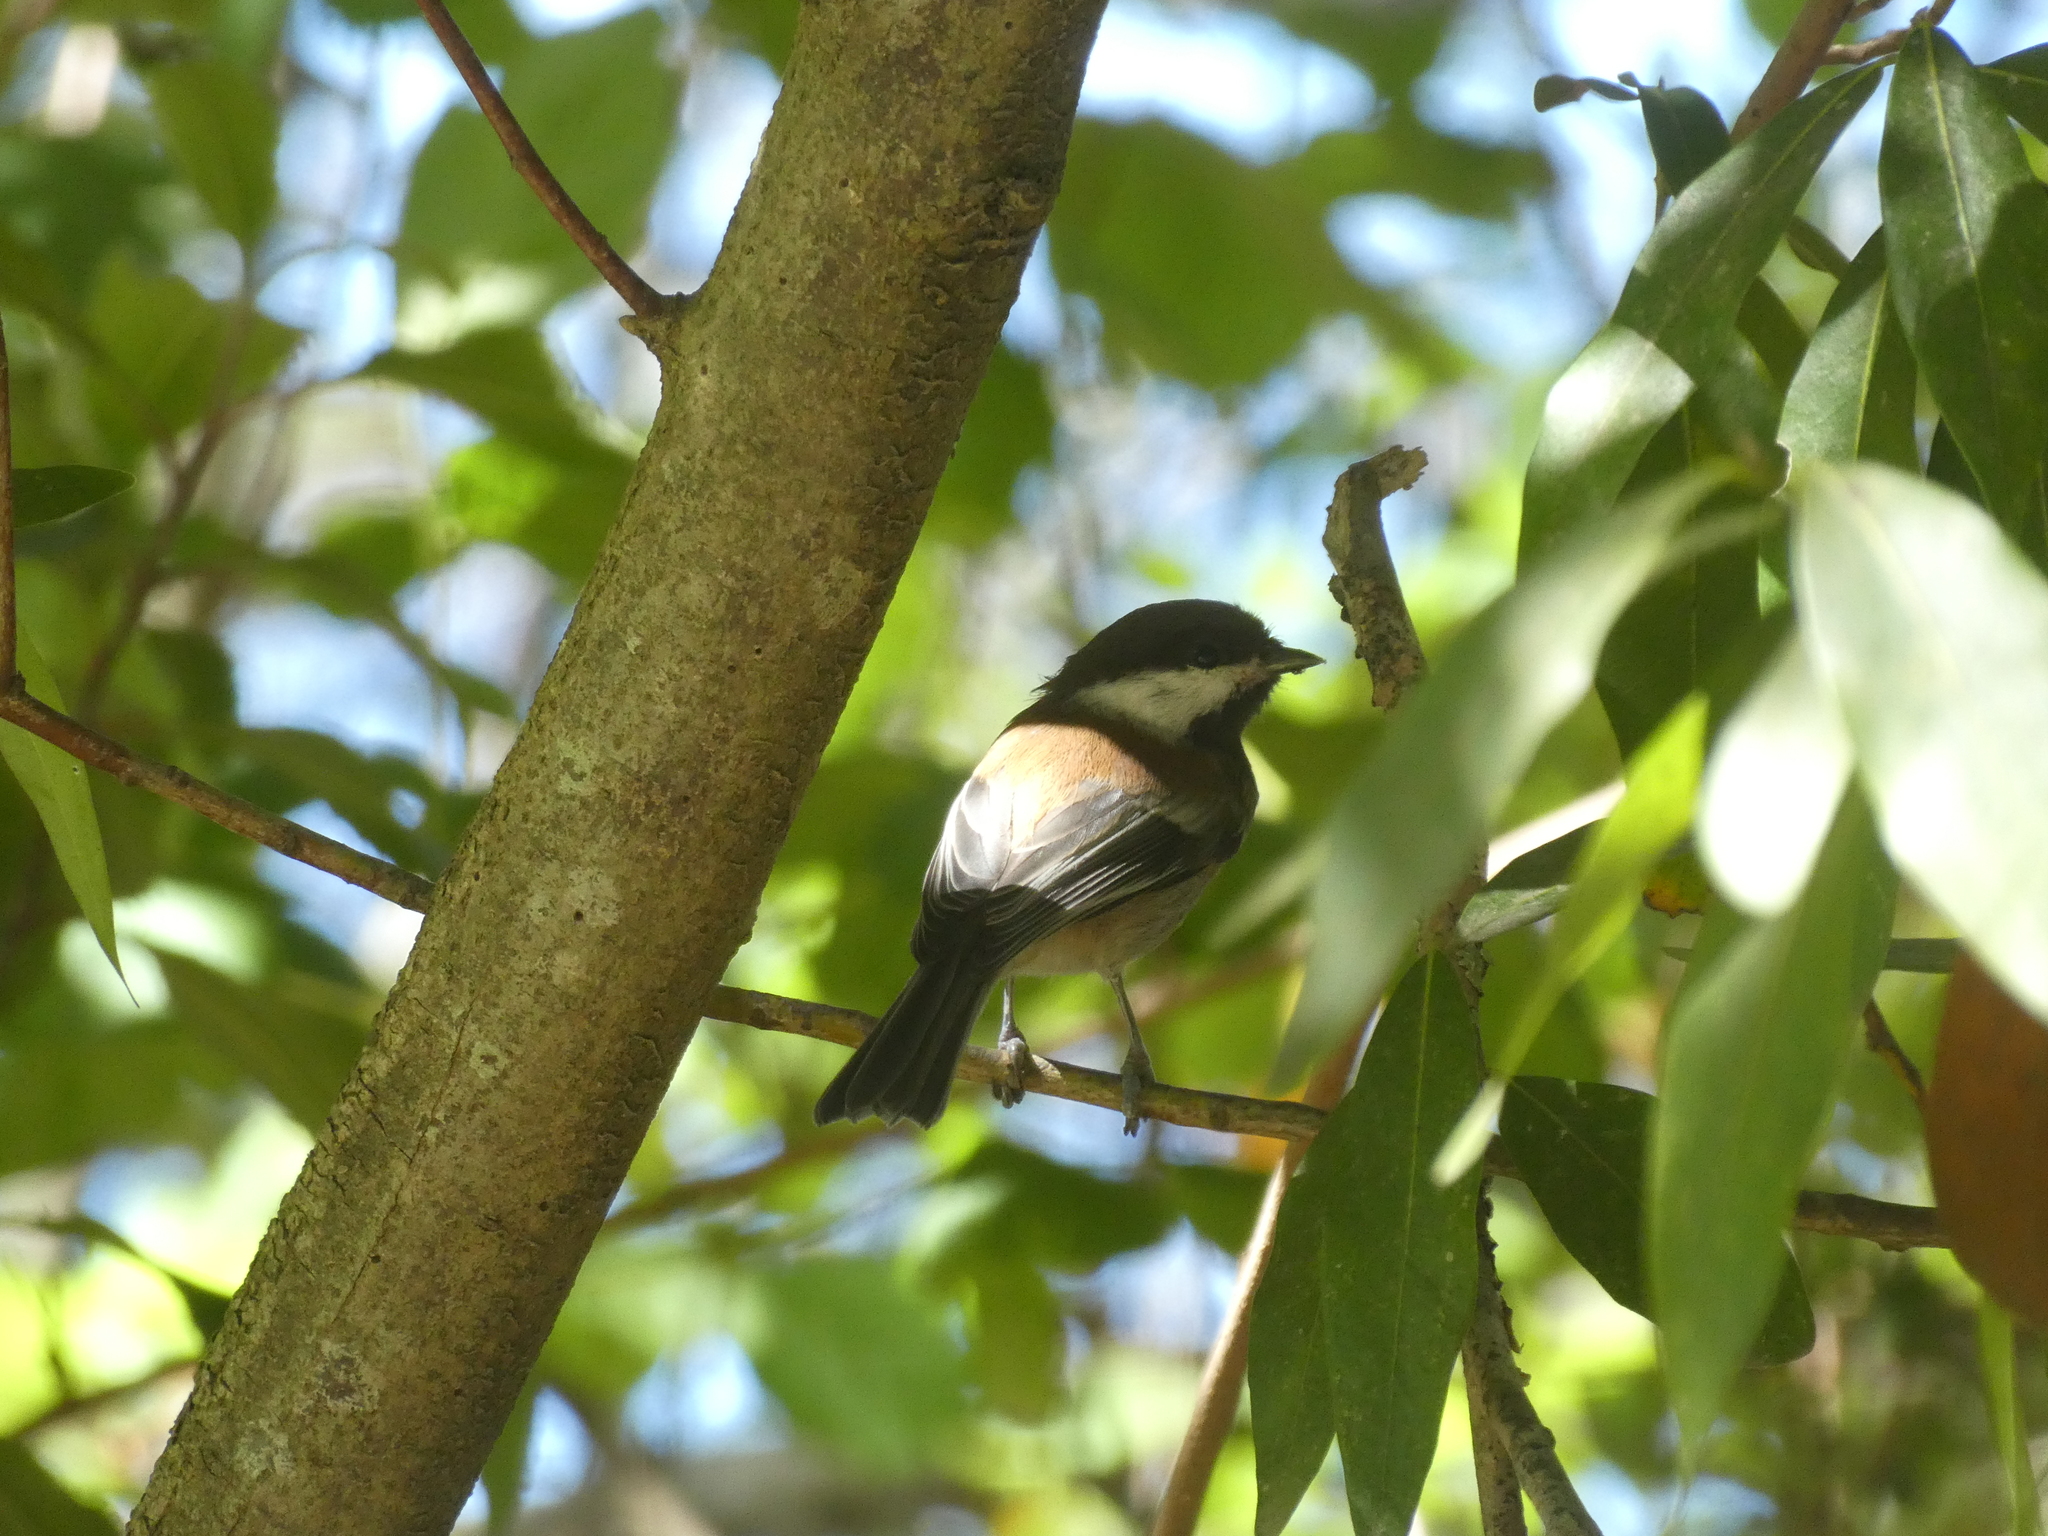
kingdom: Animalia
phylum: Chordata
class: Aves
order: Passeriformes
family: Paridae
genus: Poecile
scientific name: Poecile rufescens
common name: Chestnut-backed chickadee
